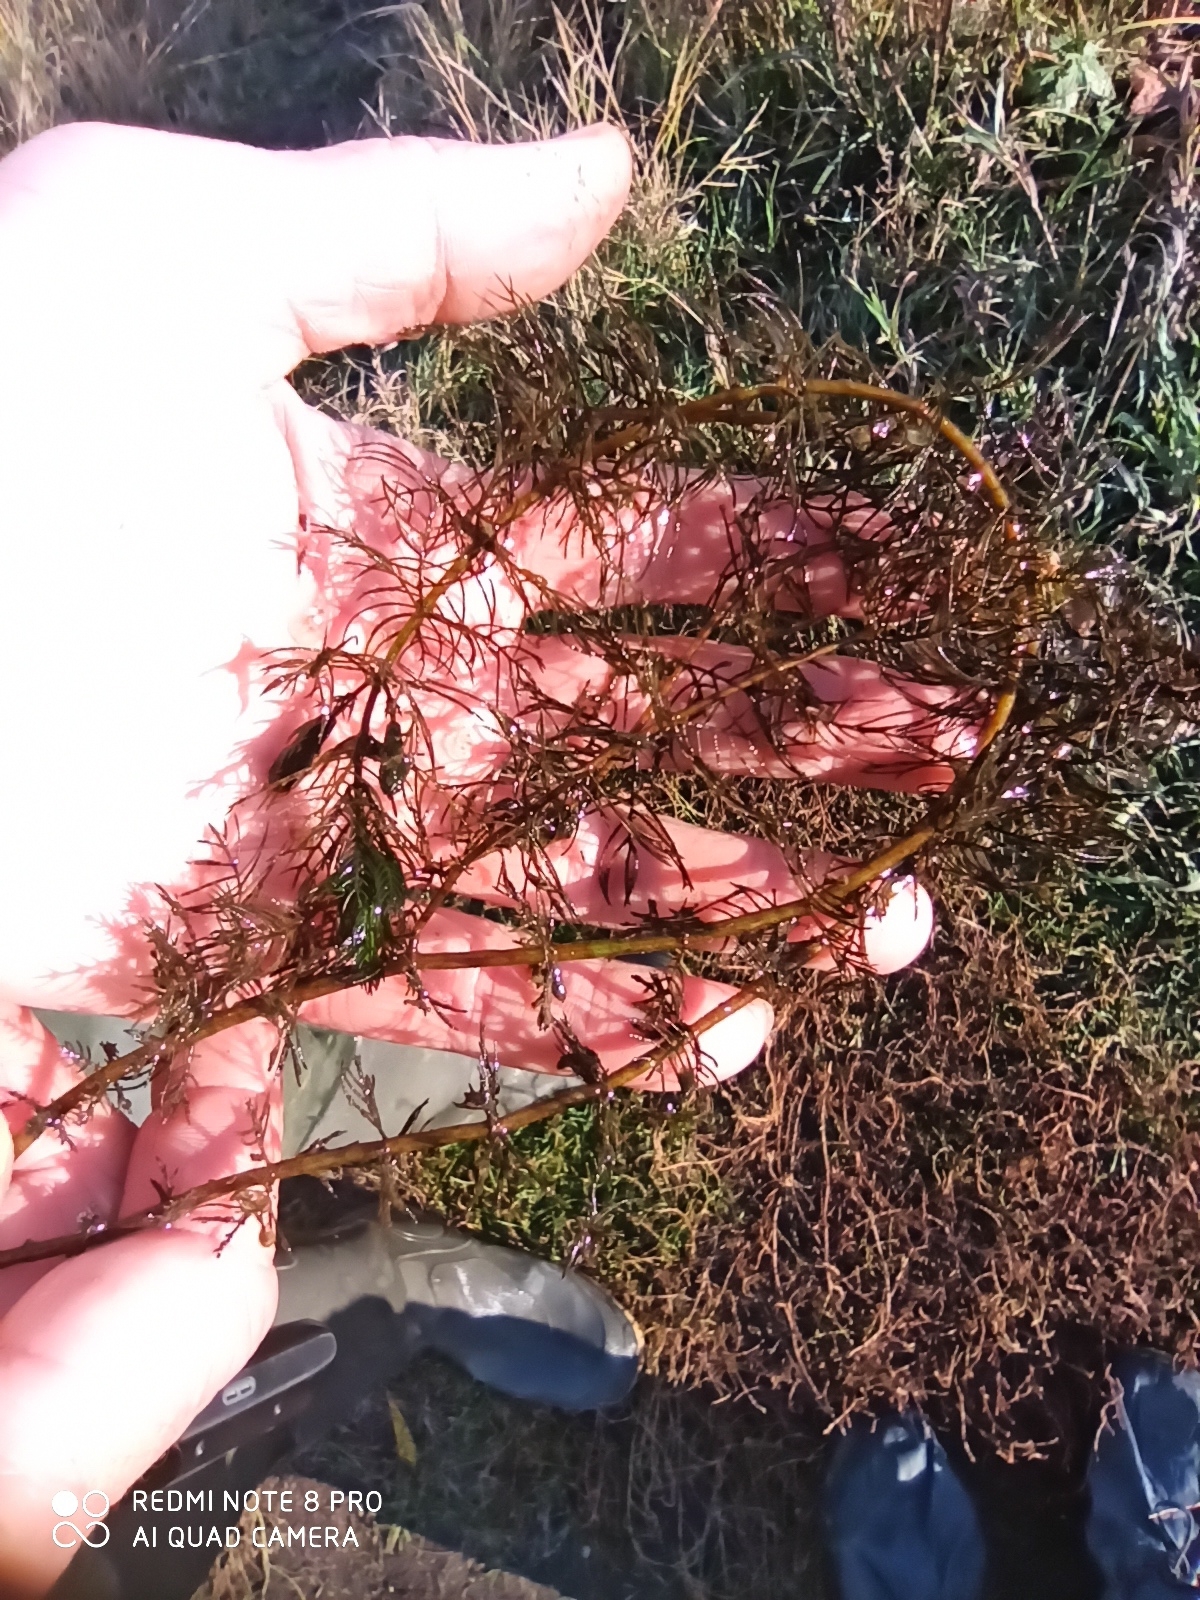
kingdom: Plantae
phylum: Tracheophyta
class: Magnoliopsida
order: Saxifragales
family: Haloragaceae
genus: Myriophyllum
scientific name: Myriophyllum sibiricum
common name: Siberian water-milfoil
